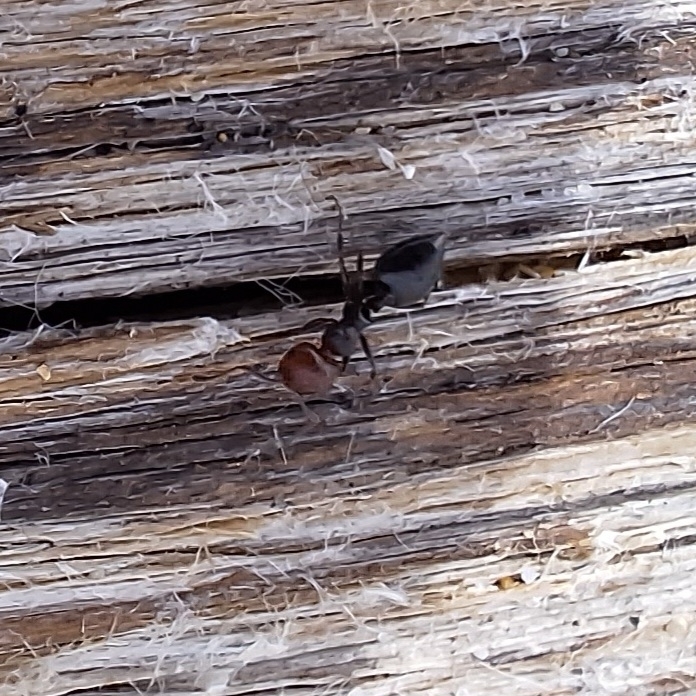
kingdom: Animalia
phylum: Arthropoda
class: Insecta
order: Hymenoptera
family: Formicidae
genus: Crematogaster
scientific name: Crematogaster scutellaris
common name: Fourmi du liège
